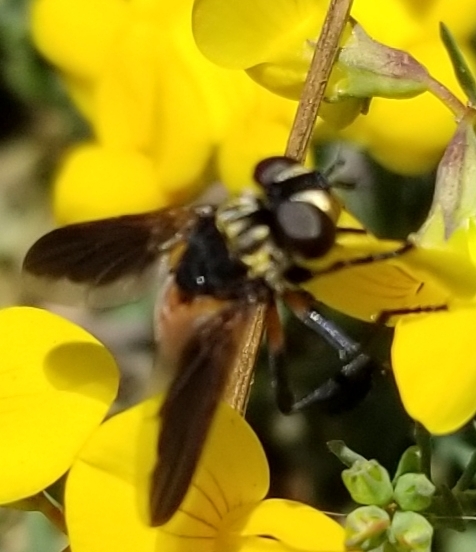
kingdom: Animalia
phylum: Arthropoda
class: Insecta
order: Diptera
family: Tachinidae
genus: Trichopoda
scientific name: Trichopoda pennipes
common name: Tachinid fly
